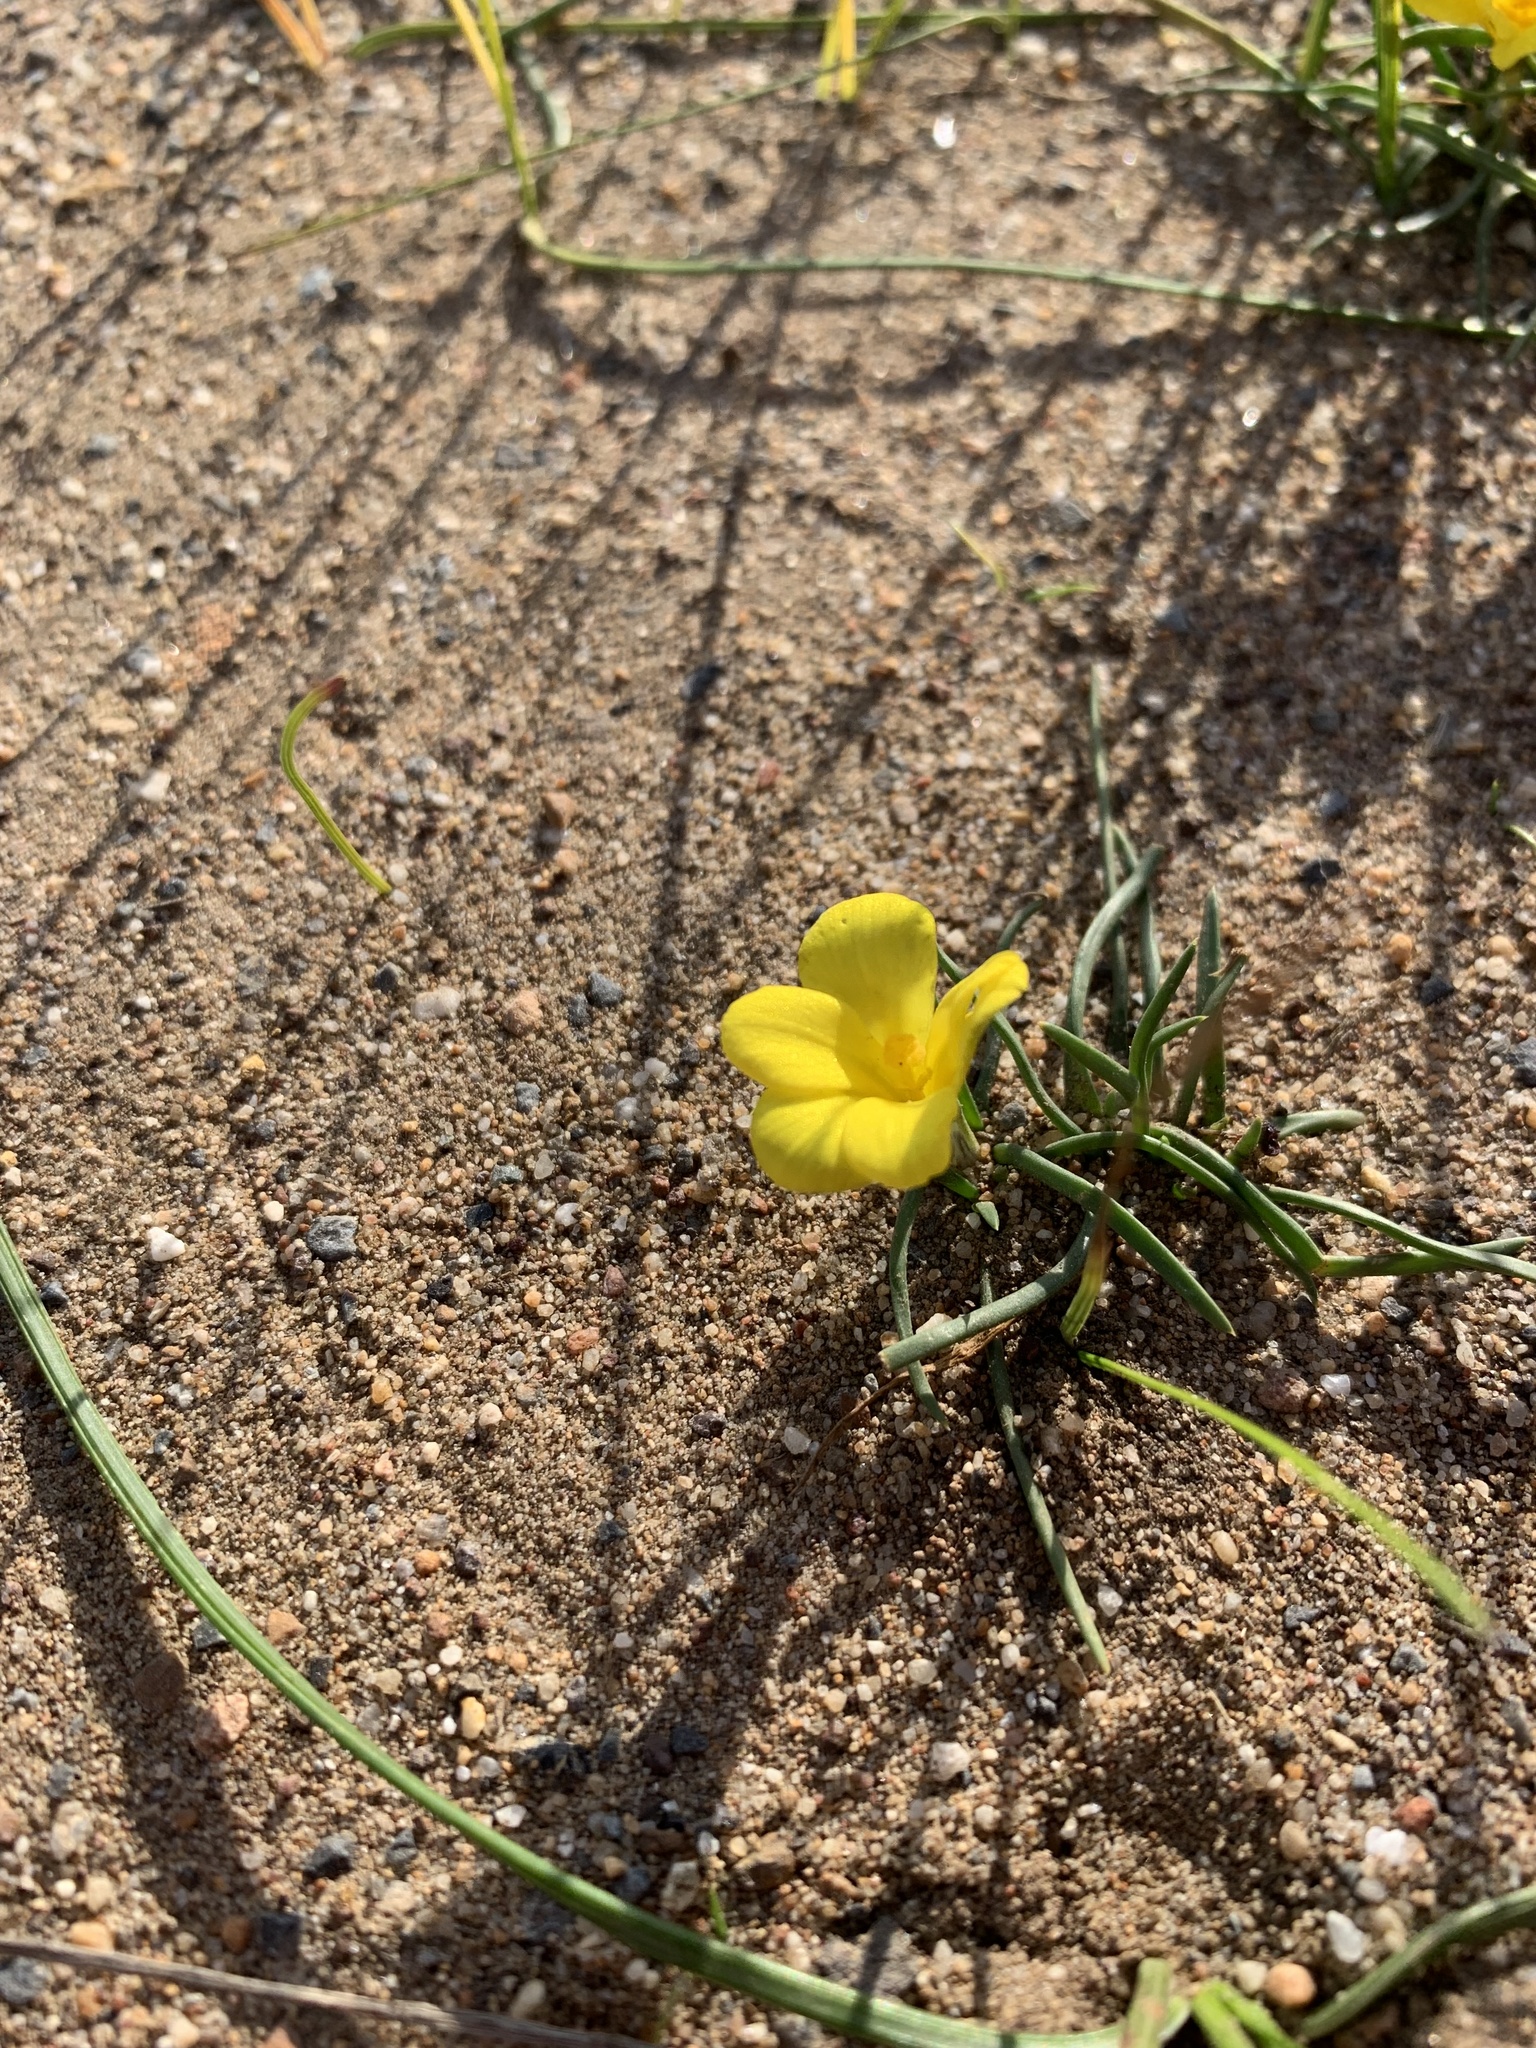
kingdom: Plantae
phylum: Tracheophyta
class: Liliopsida
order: Asparagales
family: Iridaceae
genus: Moraea
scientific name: Moraea fugacissima
